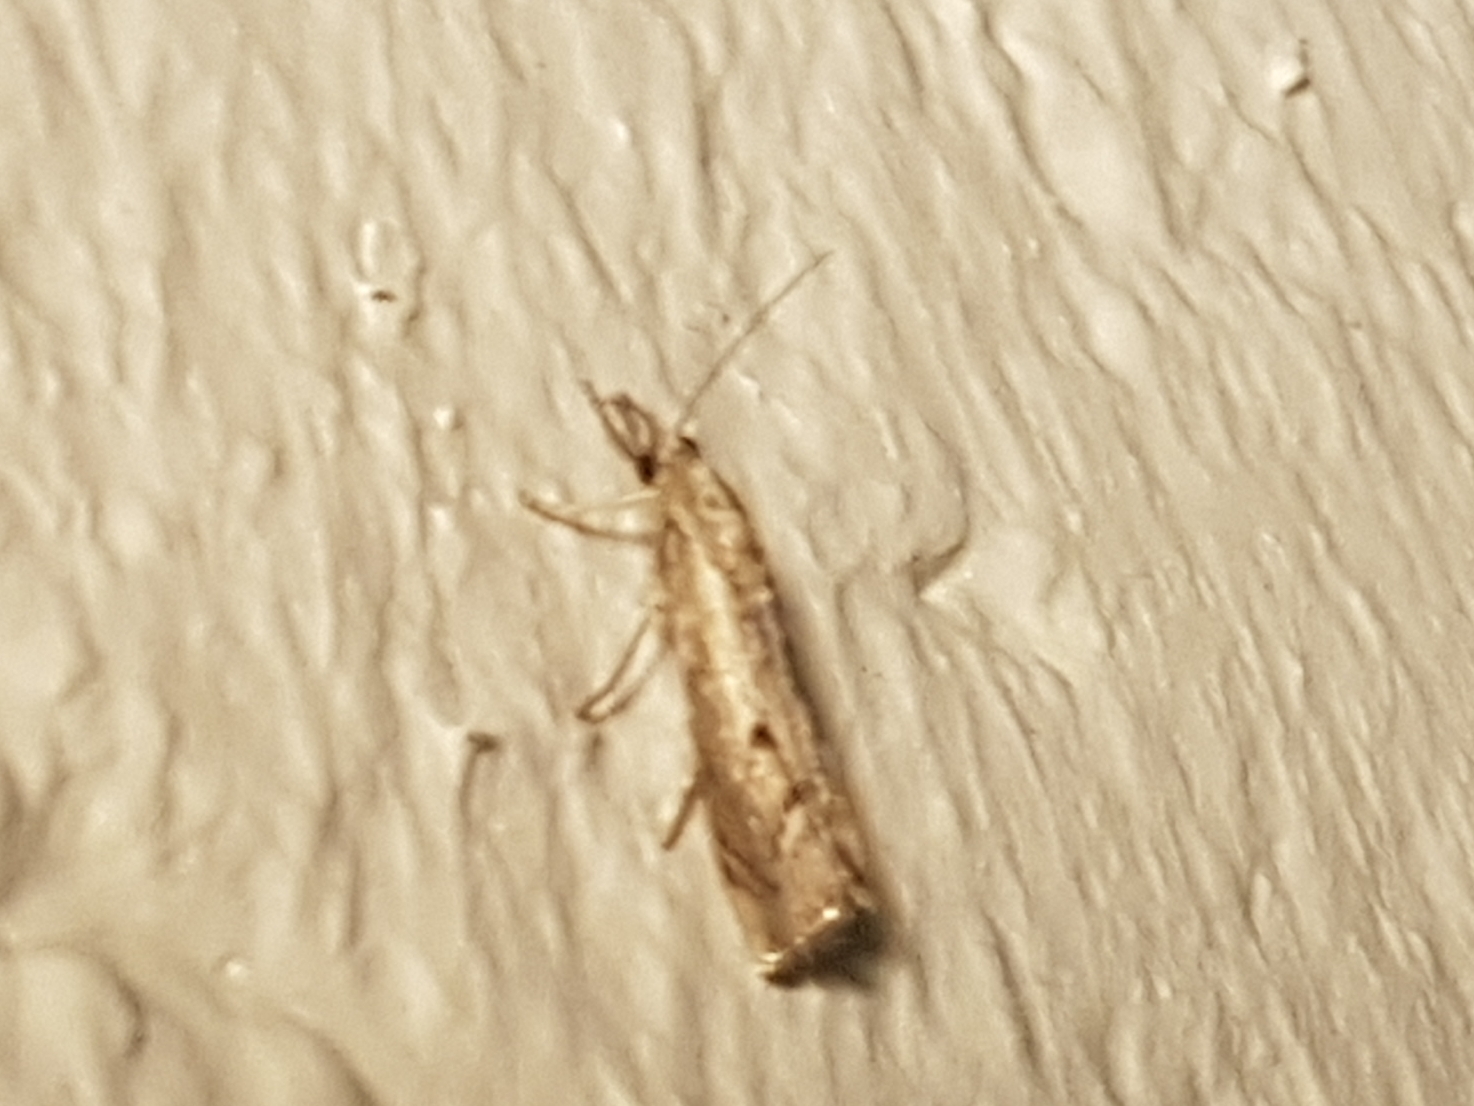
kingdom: Animalia
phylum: Arthropoda
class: Insecta
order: Lepidoptera
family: Crambidae
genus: Agriphila
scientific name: Agriphila geniculea
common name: Elbow-stripe grass-veneer
